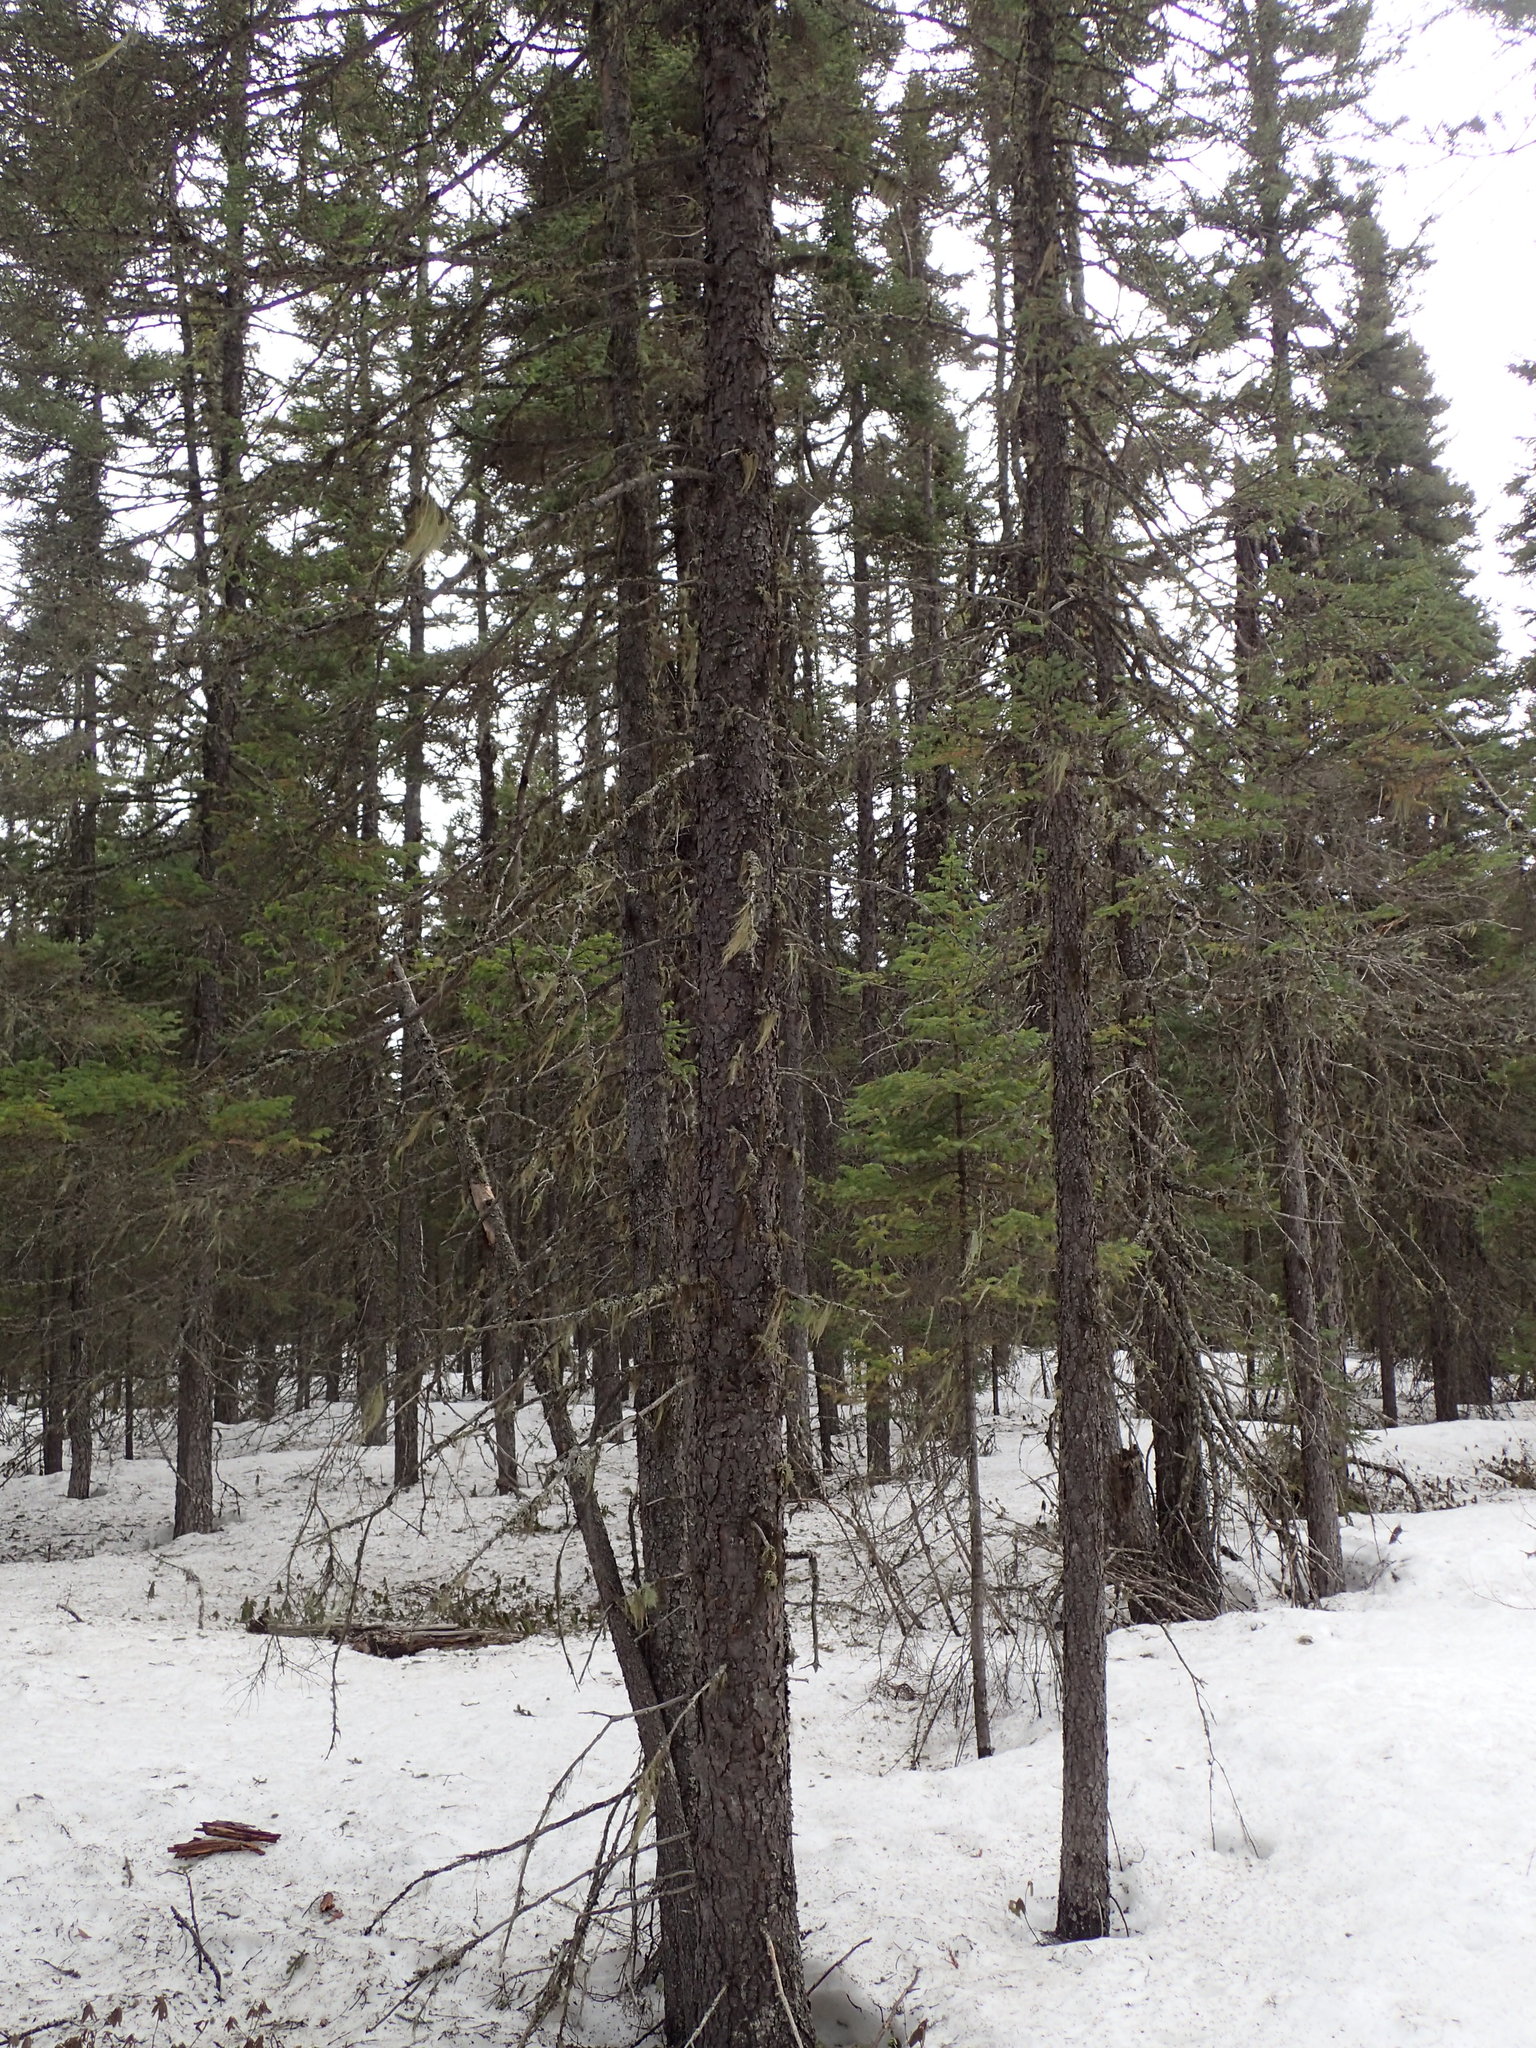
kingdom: Plantae
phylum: Tracheophyta
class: Pinopsida
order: Pinales
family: Pinaceae
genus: Picea
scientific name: Picea mariana
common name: Black spruce
